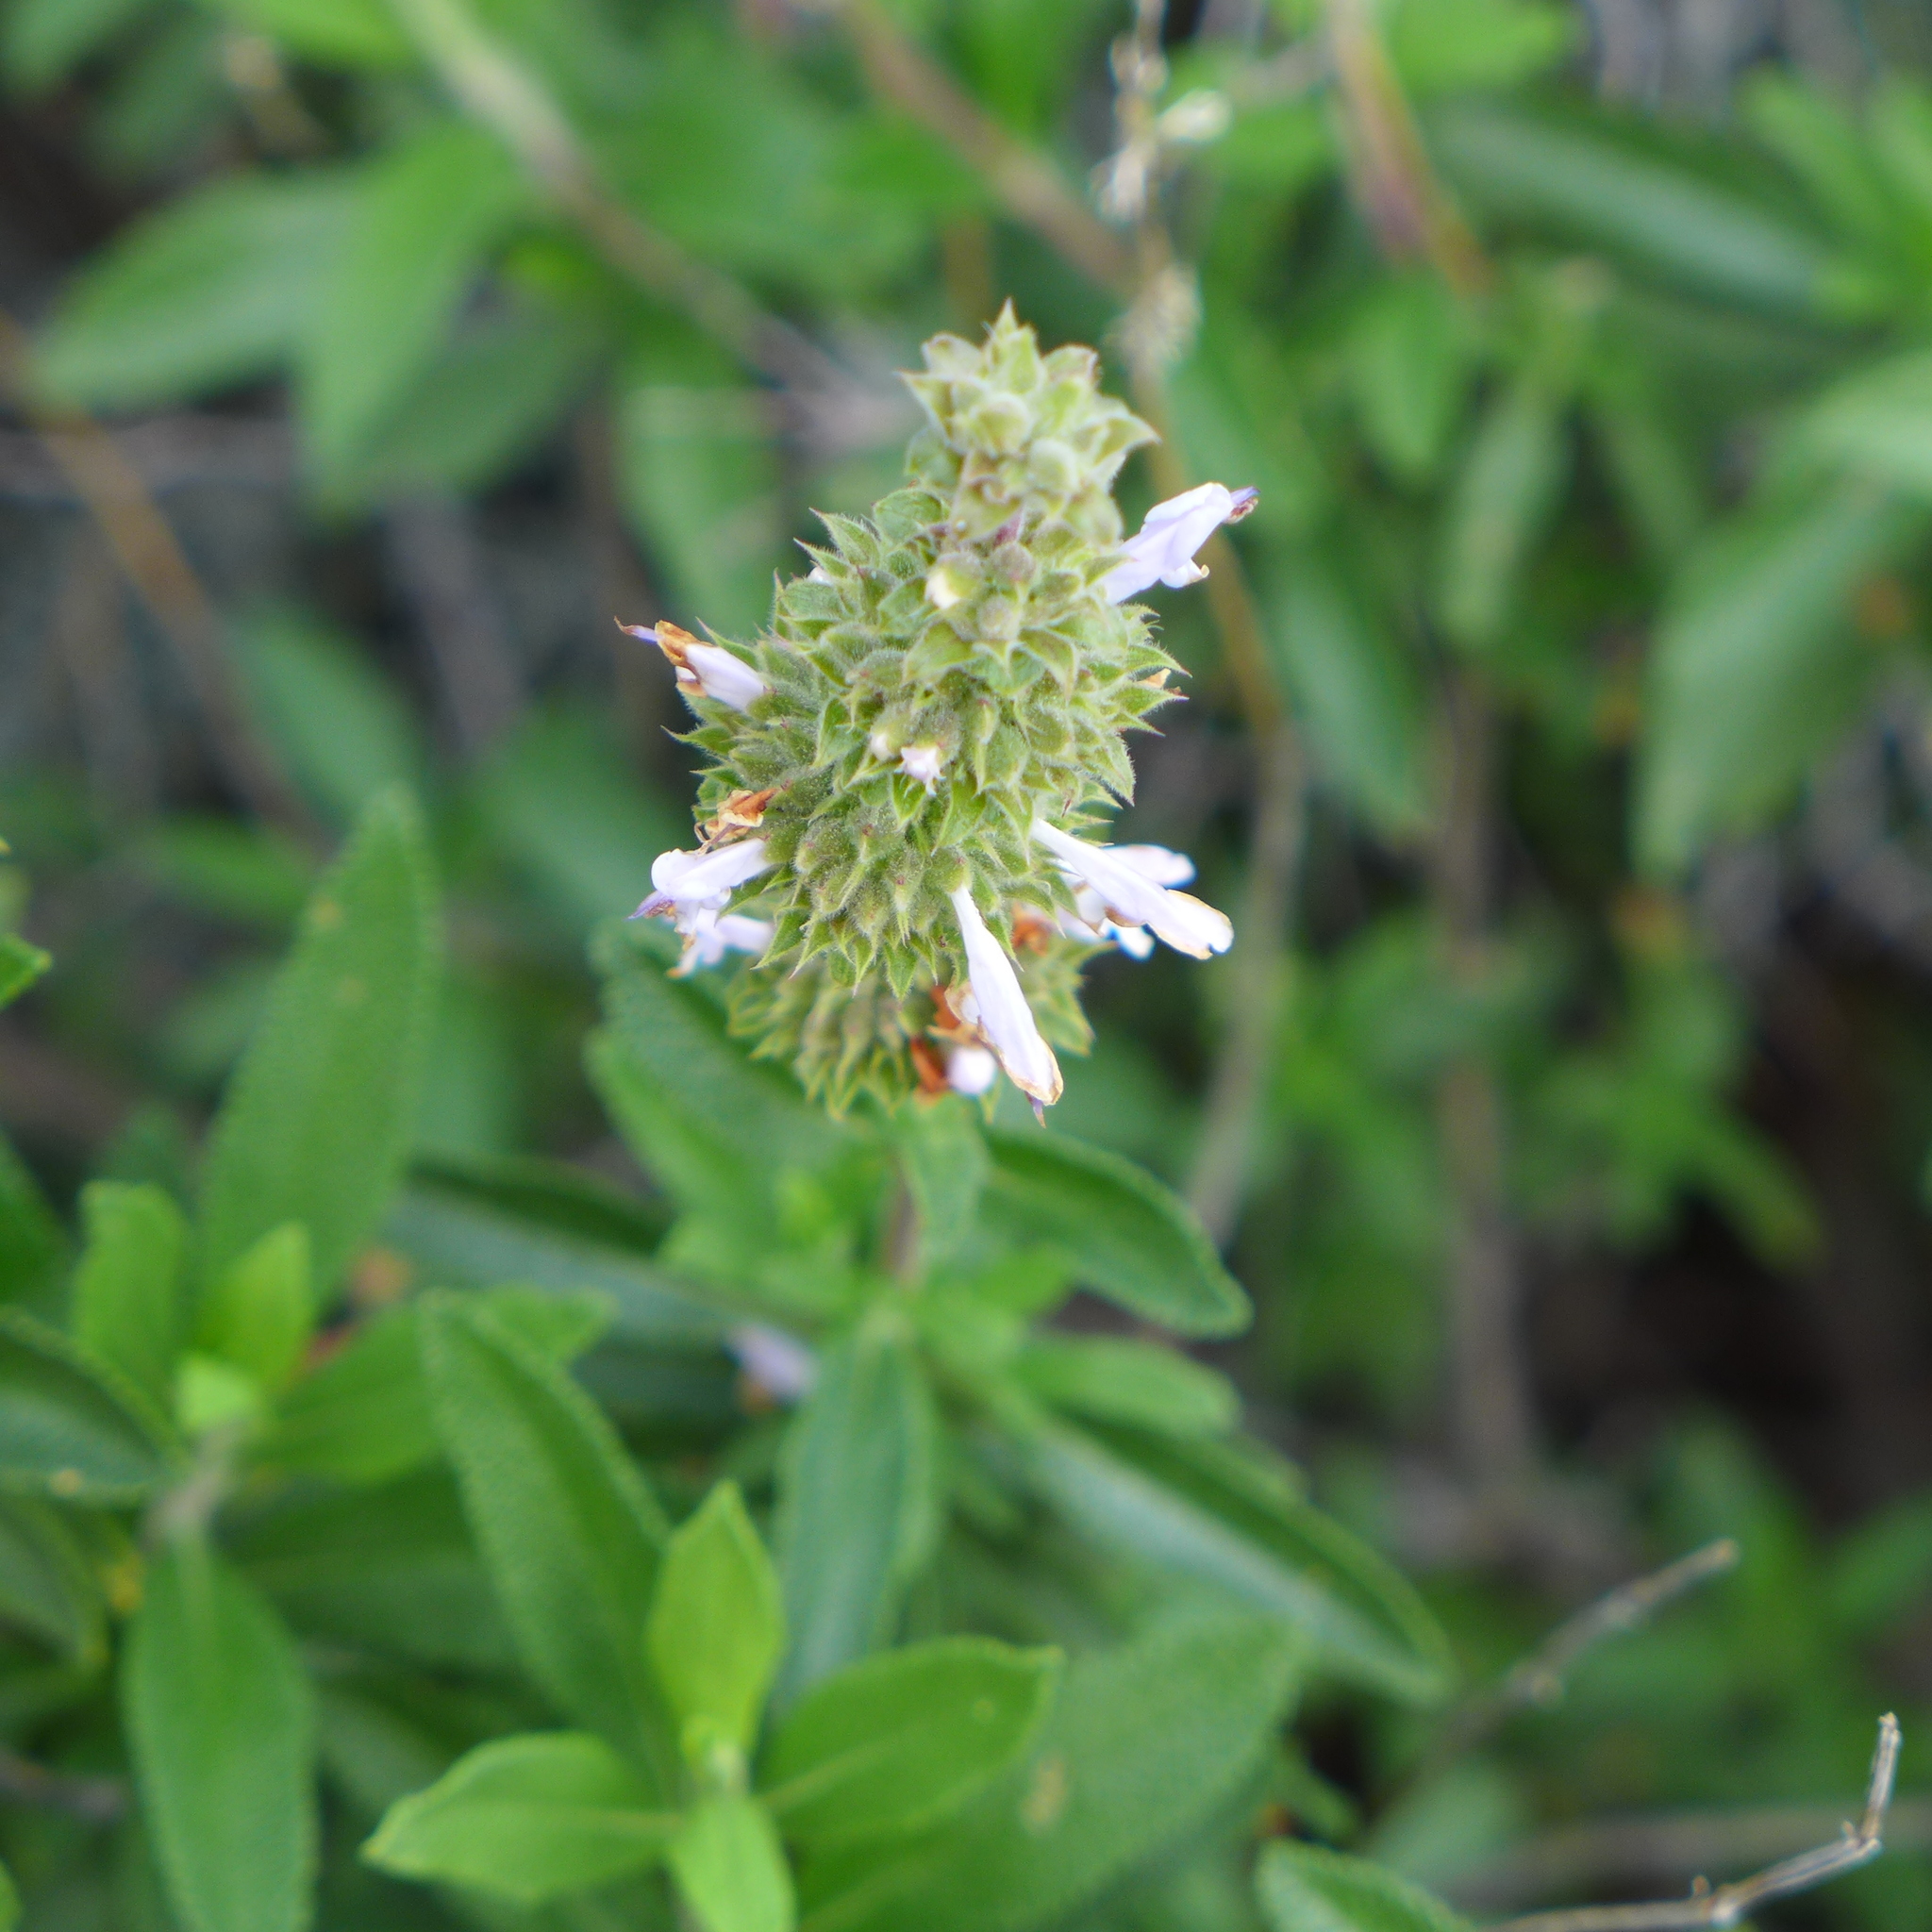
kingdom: Plantae
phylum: Tracheophyta
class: Magnoliopsida
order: Lamiales
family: Lamiaceae
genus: Salvia
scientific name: Salvia mellifera
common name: Black sage
